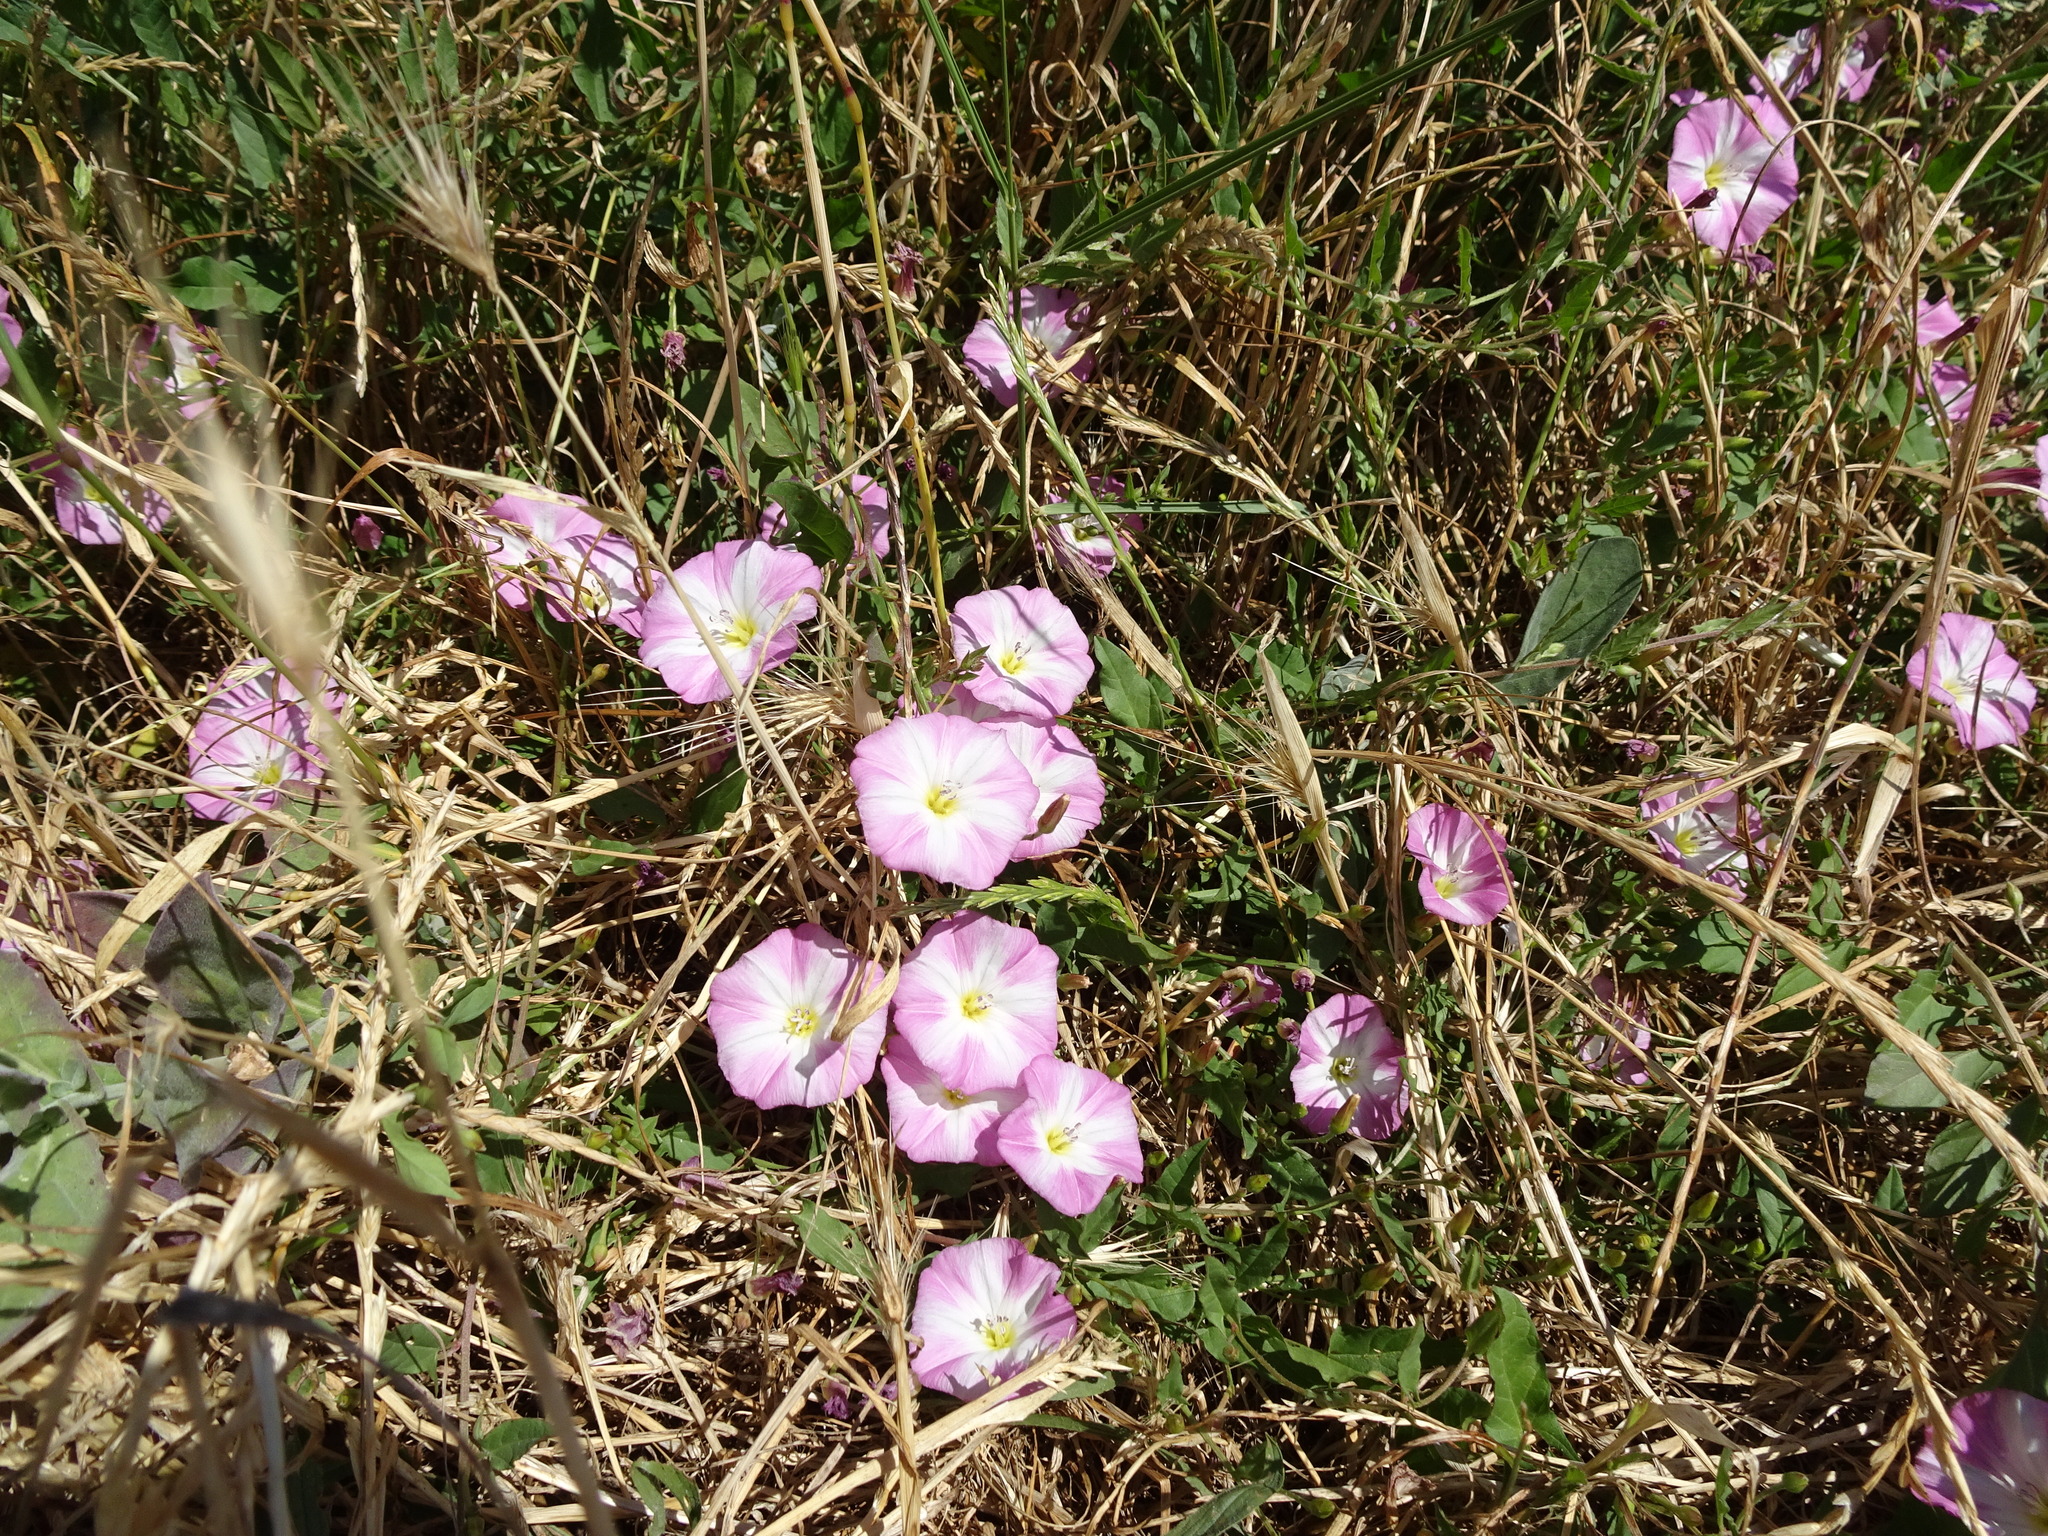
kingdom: Plantae
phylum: Tracheophyta
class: Magnoliopsida
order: Solanales
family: Convolvulaceae
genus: Convolvulus
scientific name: Convolvulus arvensis
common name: Field bindweed
